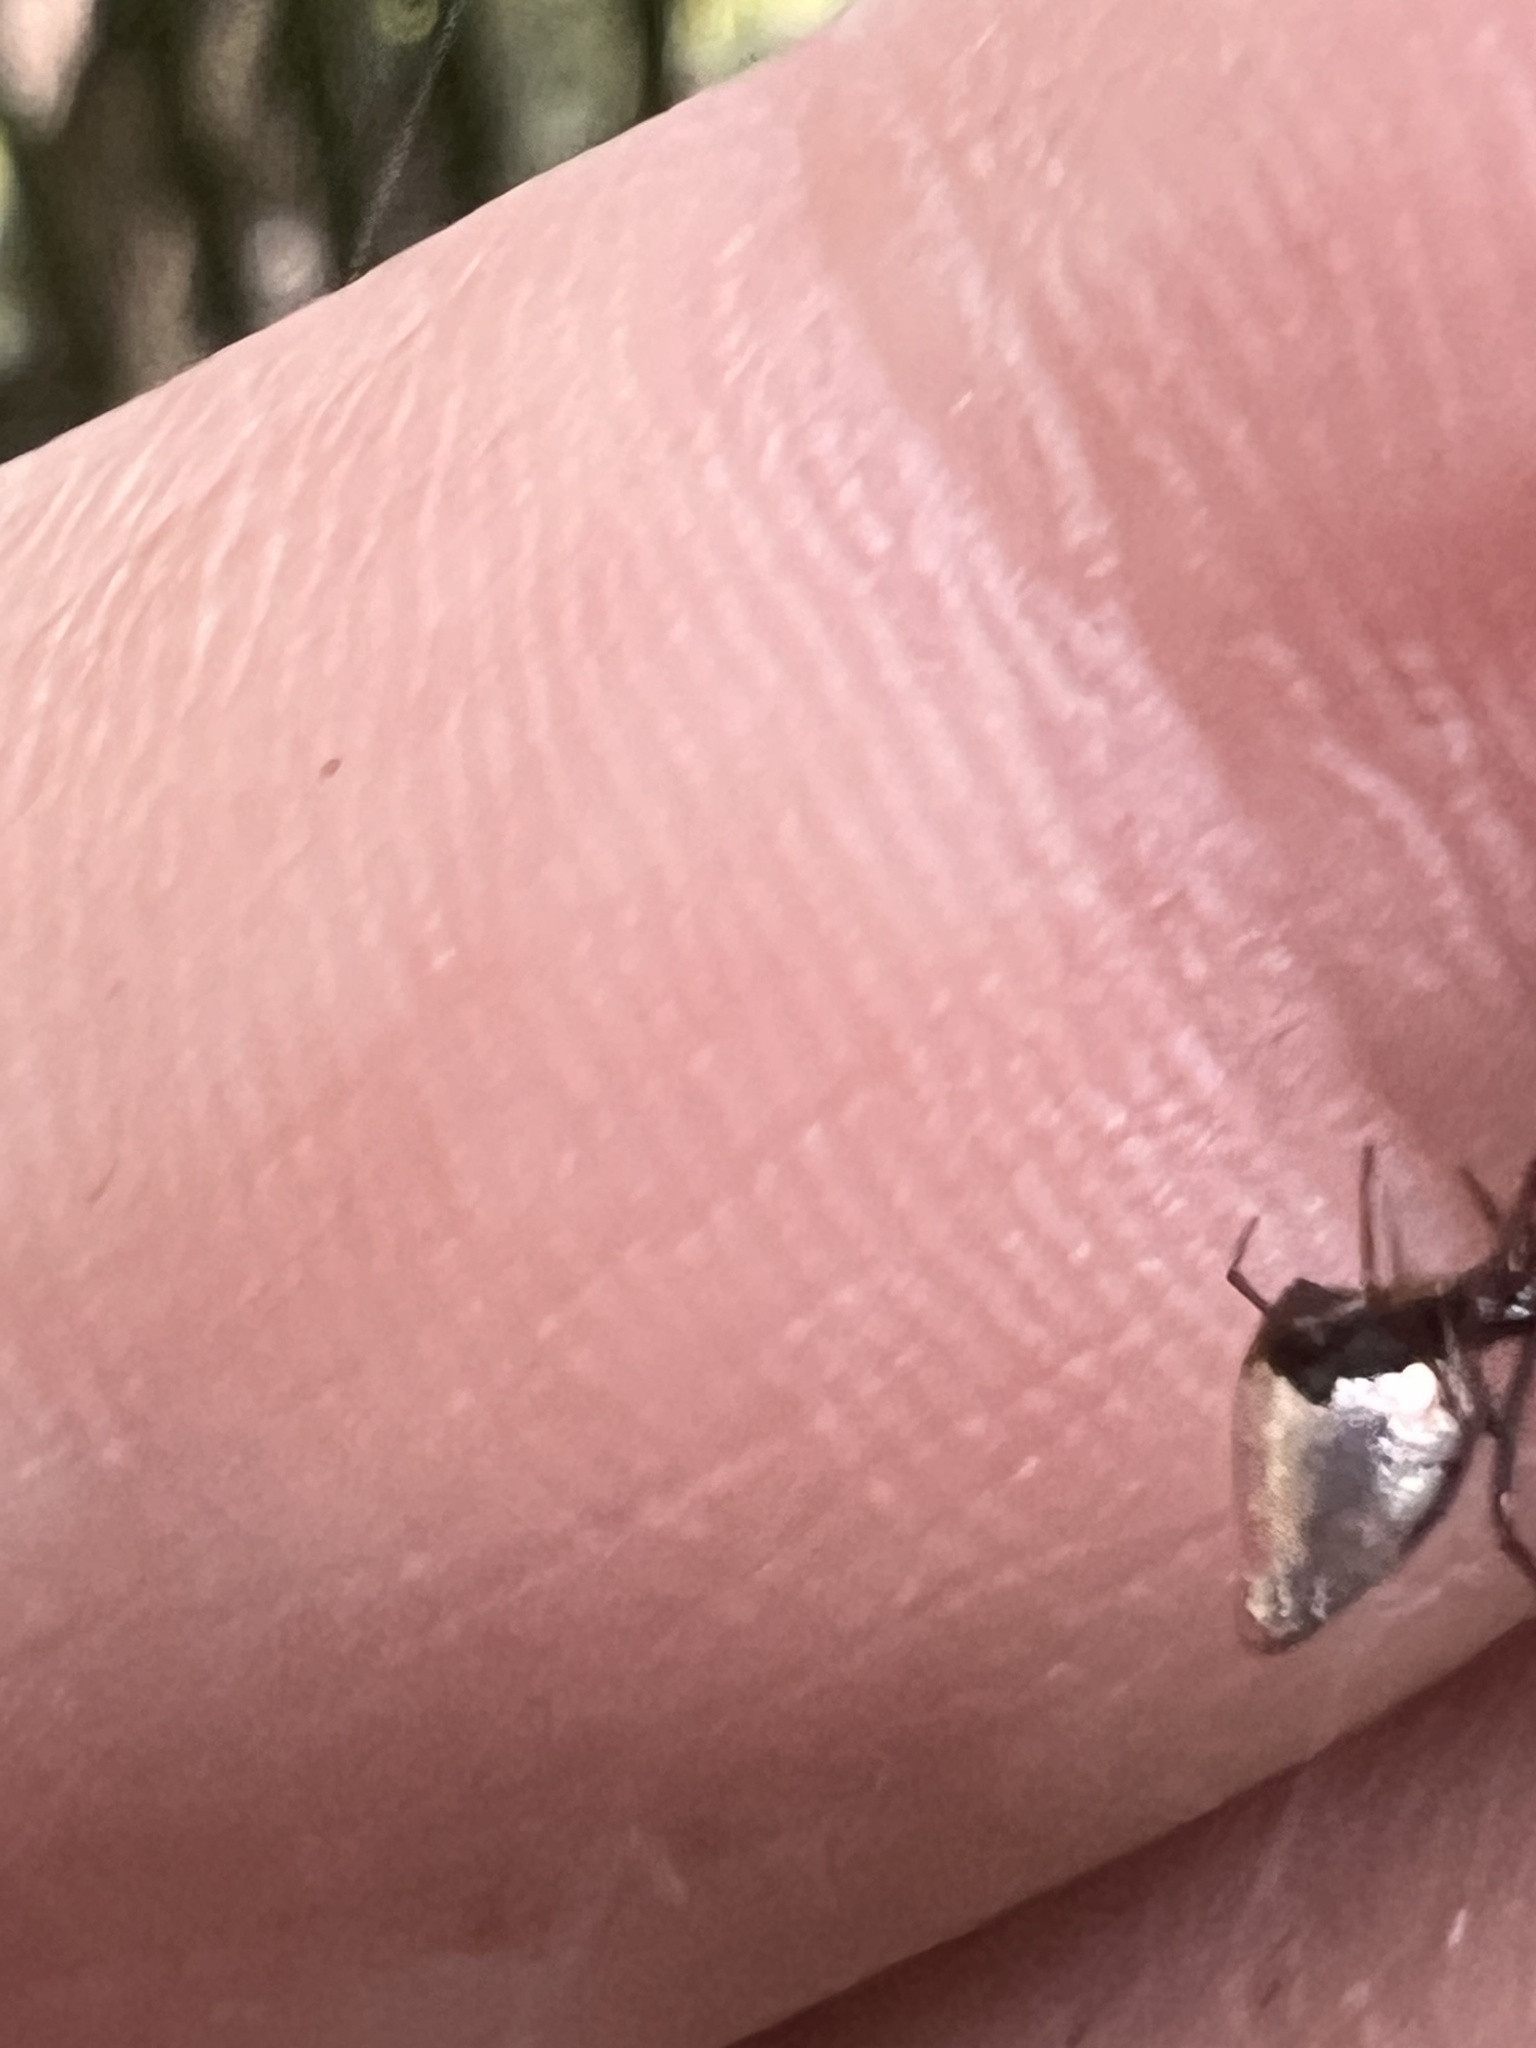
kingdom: Animalia
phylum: Arthropoda
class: Arachnida
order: Araneae
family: Theridiidae
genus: Argyrodes
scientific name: Argyrodes antipodianus
